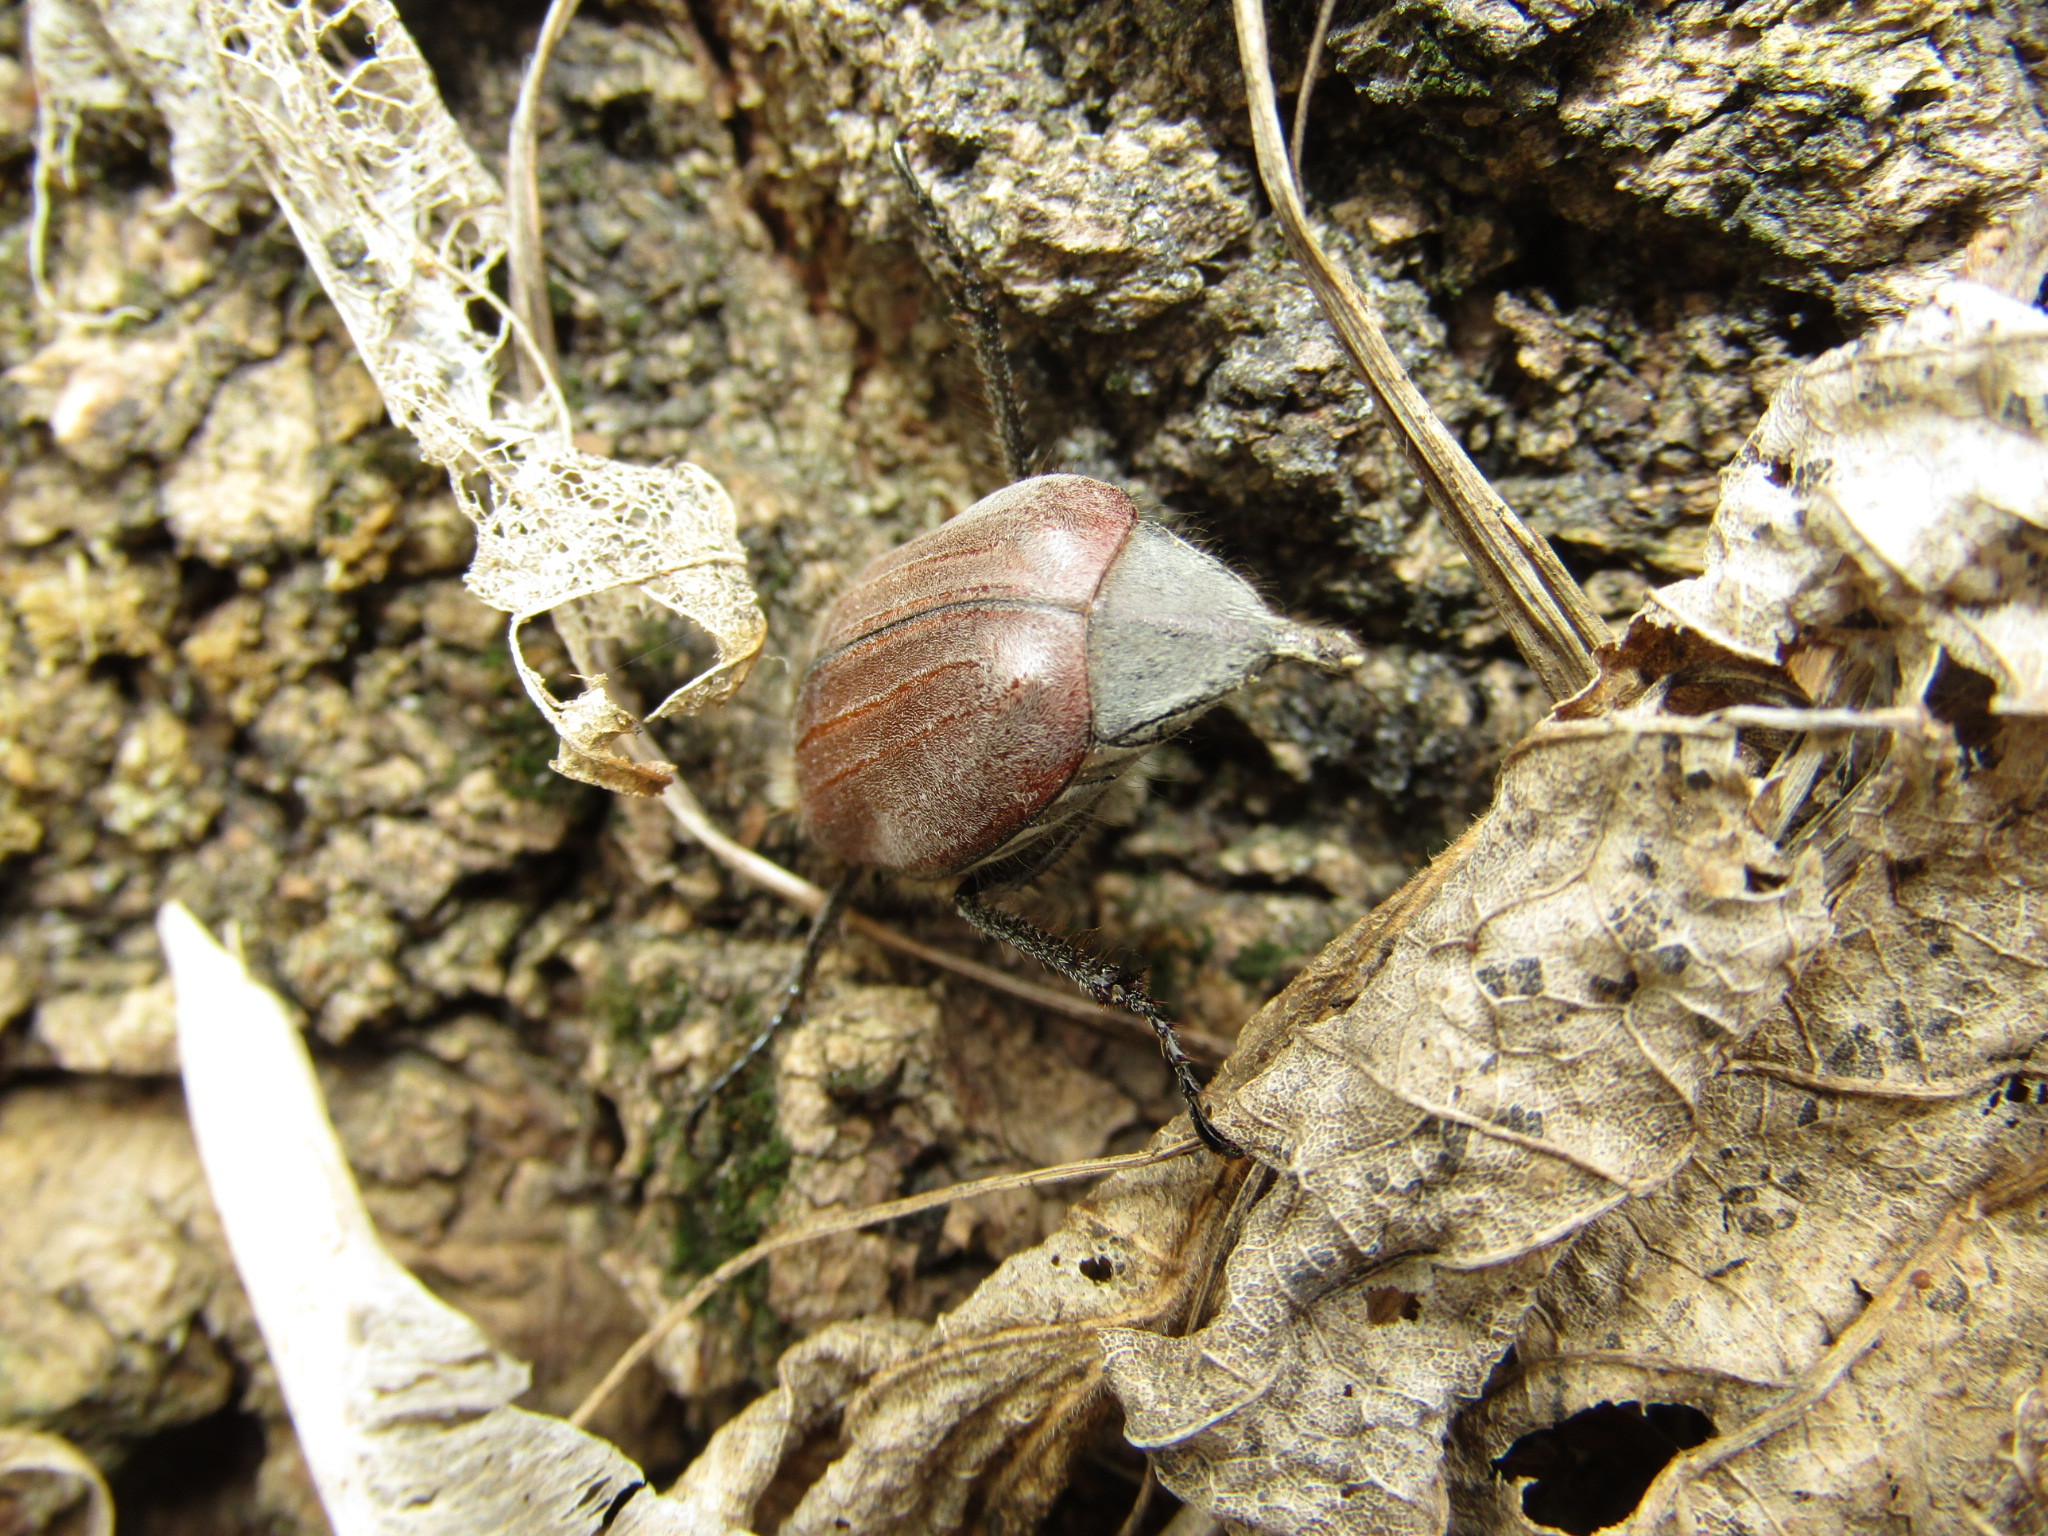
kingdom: Animalia
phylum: Arthropoda
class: Insecta
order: Coleoptera
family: Scarabaeidae
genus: Melolontha
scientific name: Melolontha hippocastani
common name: Chestnut cockchafer
